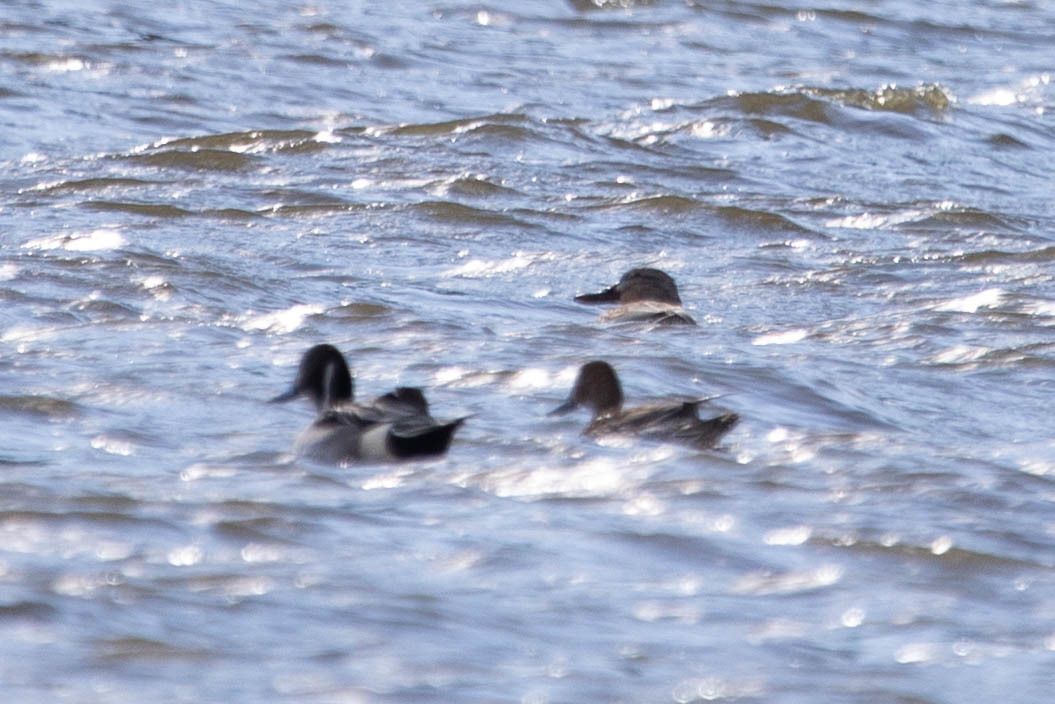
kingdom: Animalia
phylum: Chordata
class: Aves
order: Anseriformes
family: Anatidae
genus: Anas
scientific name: Anas acuta
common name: Northern pintail
